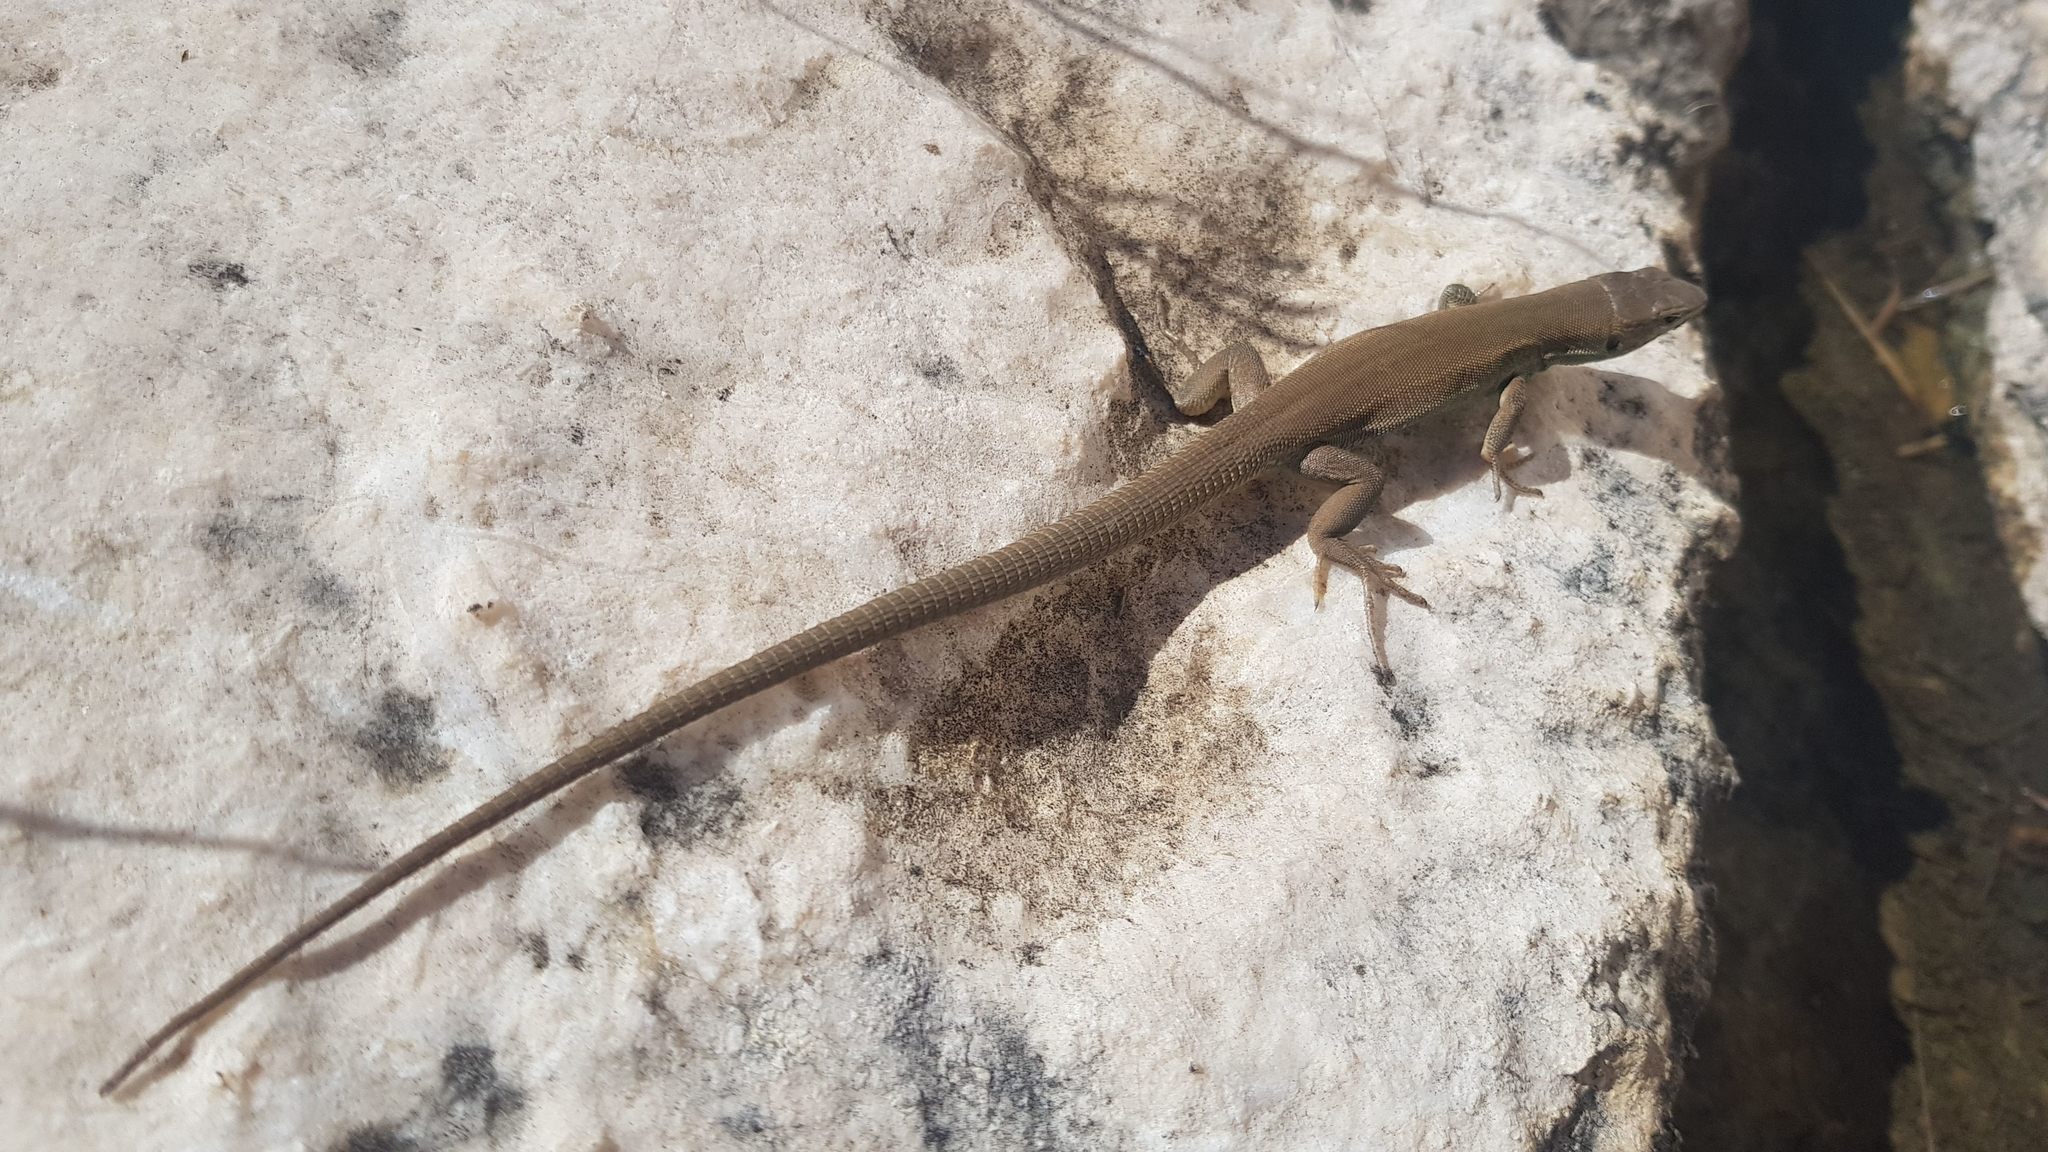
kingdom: Animalia
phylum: Chordata
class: Squamata
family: Lacertidae
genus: Podarcis
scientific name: Podarcis melisellensis
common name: Dalmatian wall lizard
